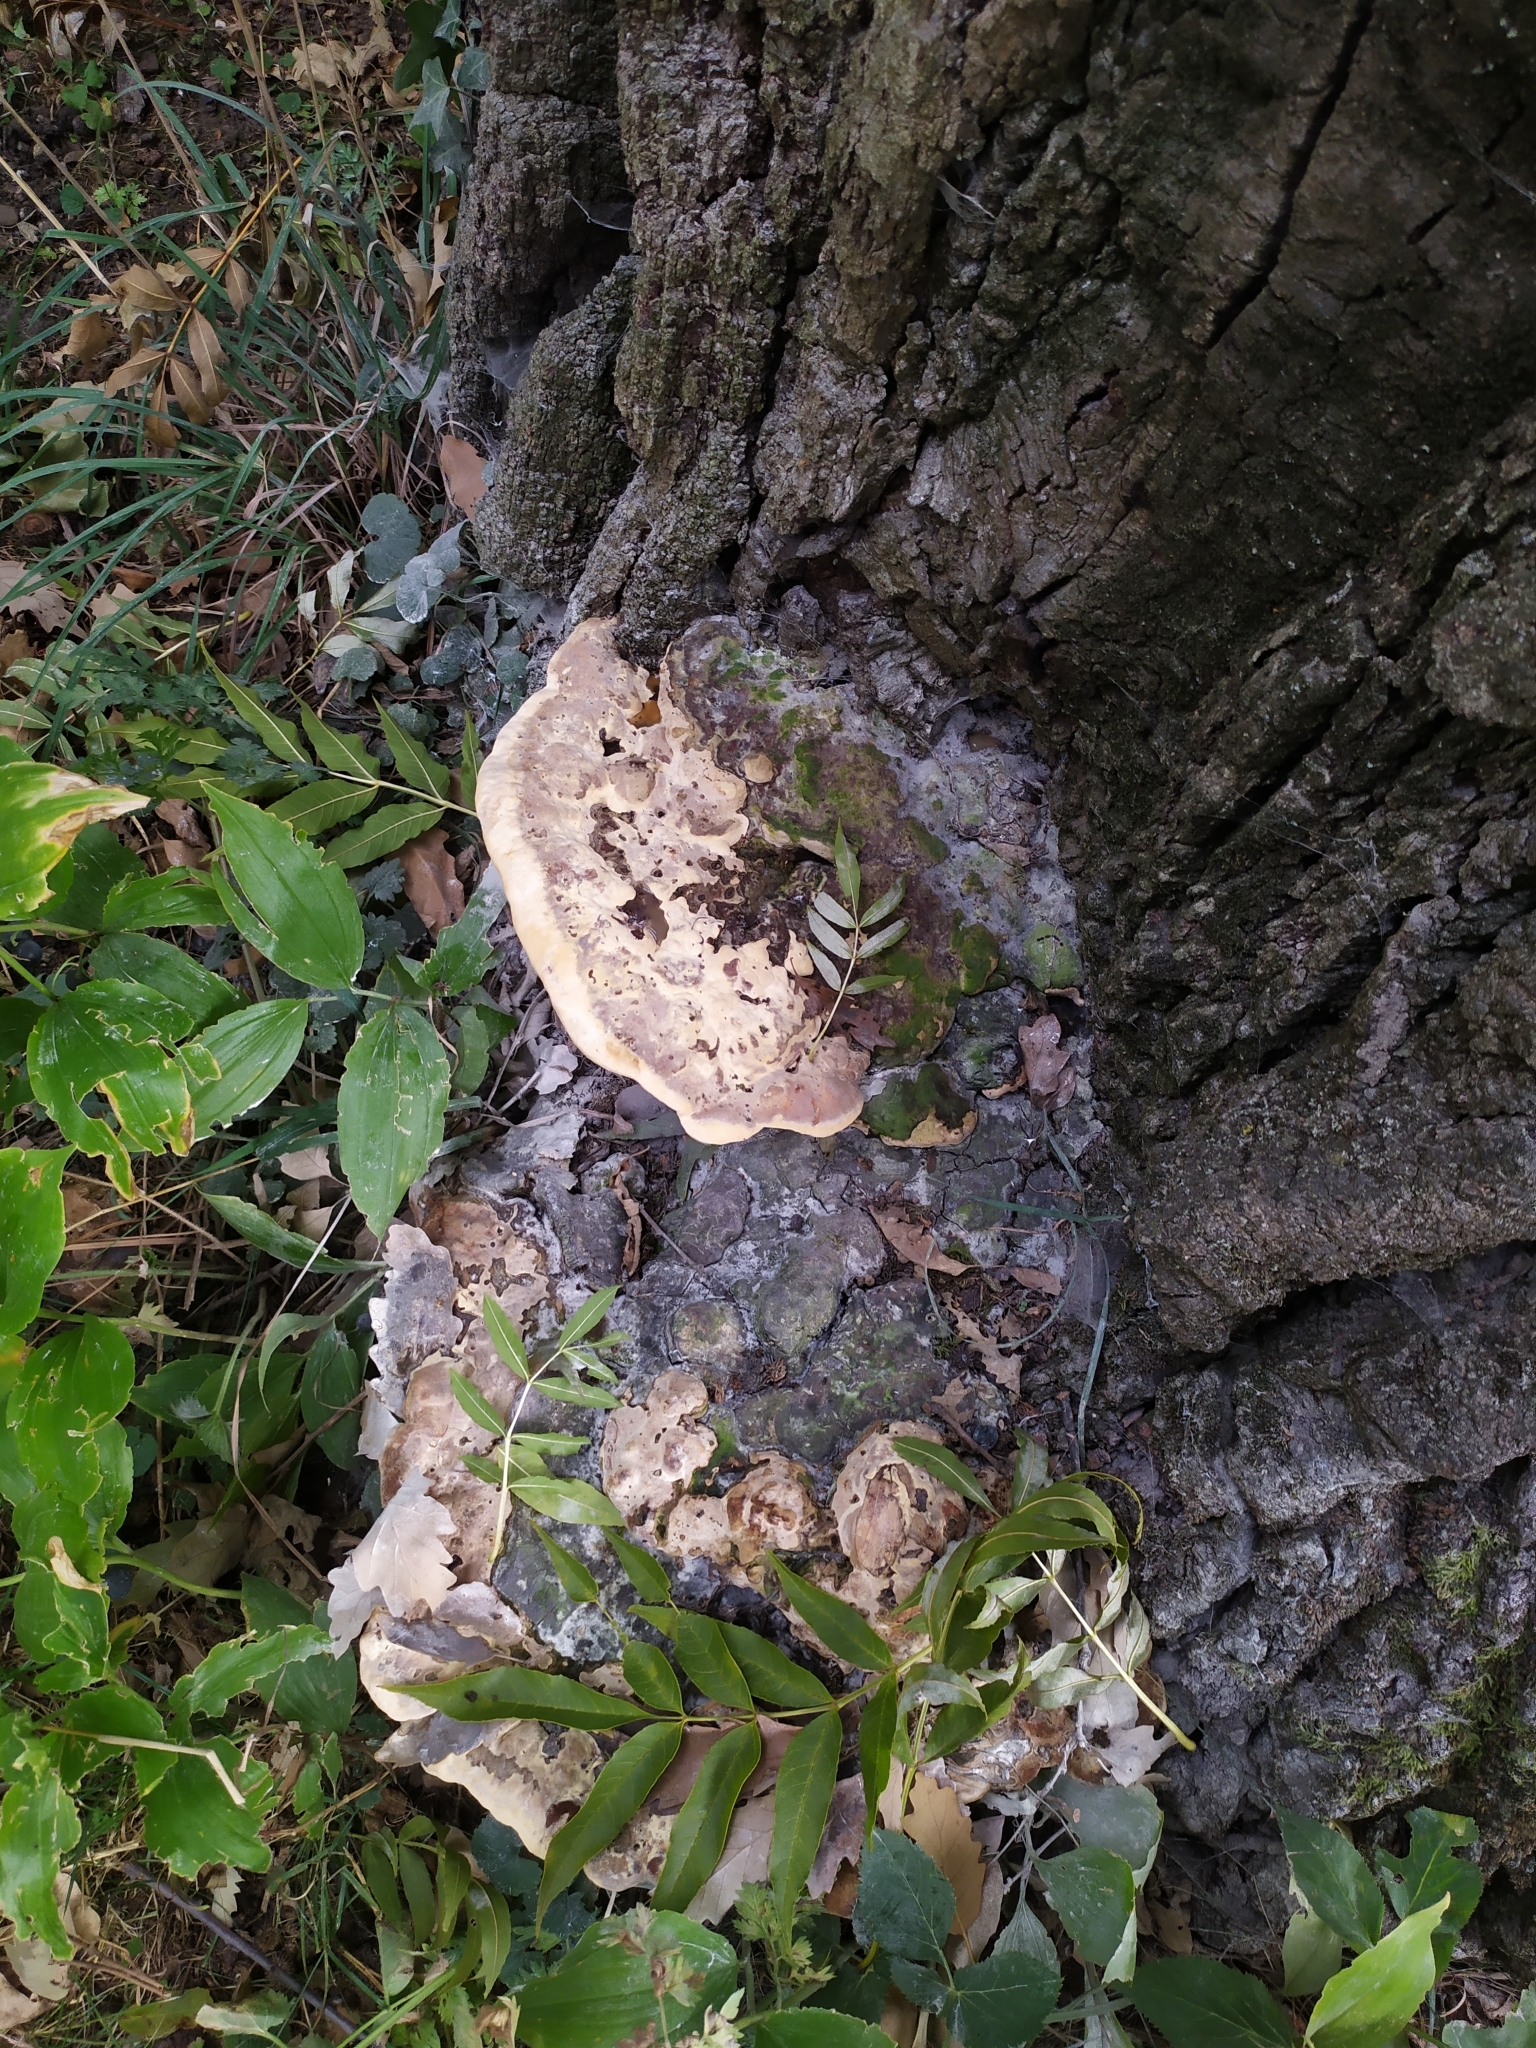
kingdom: Fungi
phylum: Basidiomycota
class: Agaricomycetes
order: Polyporales
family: Polyporaceae
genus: Vanderbylia
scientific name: Vanderbylia fraxinea
